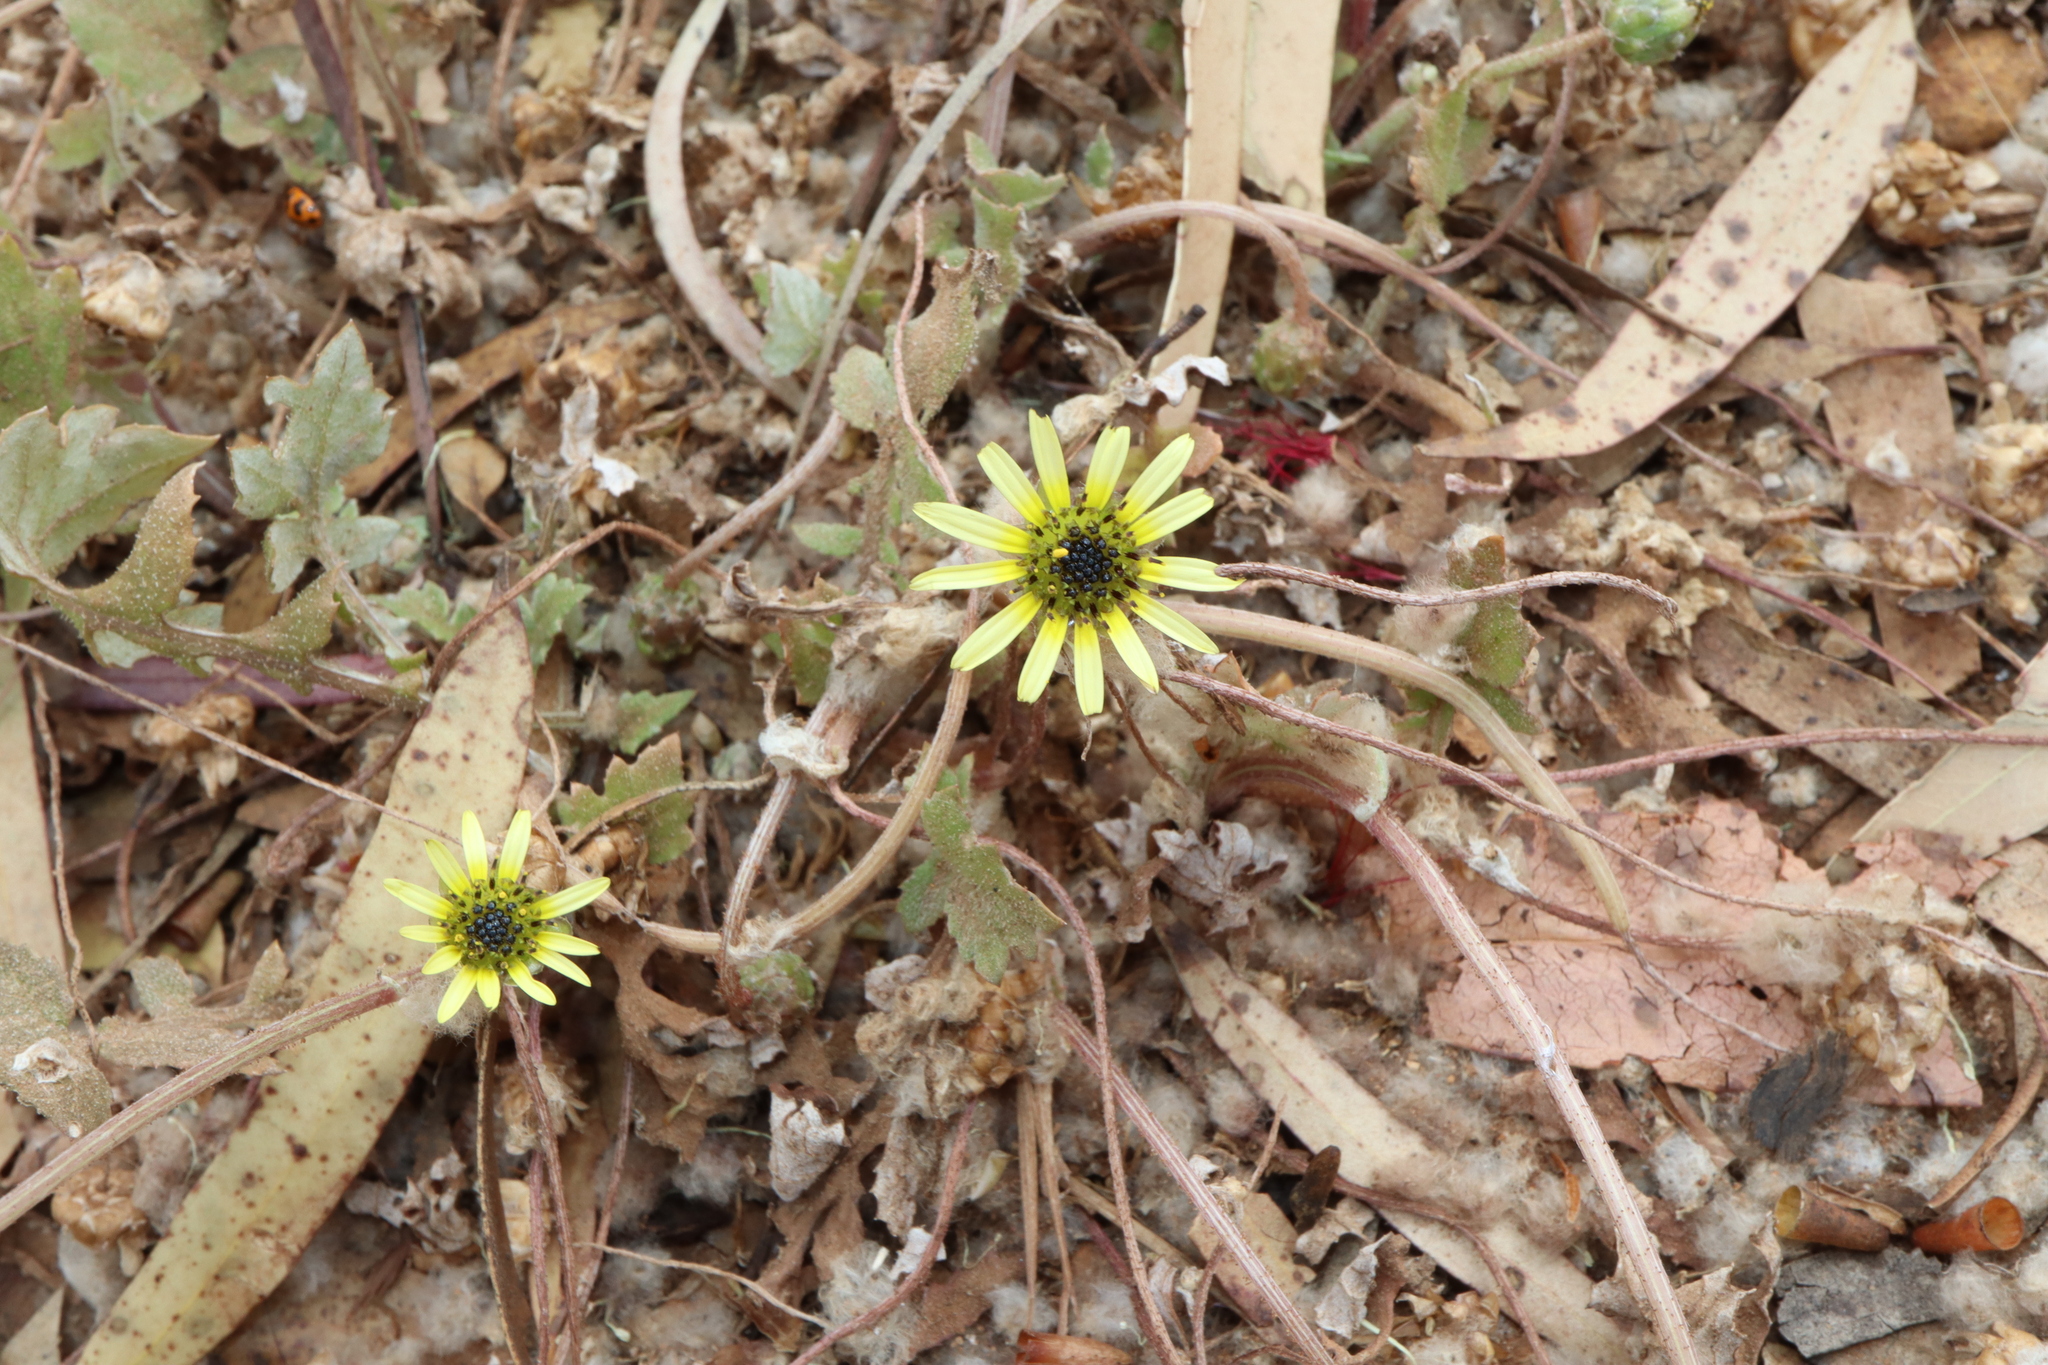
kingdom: Plantae
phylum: Tracheophyta
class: Magnoliopsida
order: Asterales
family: Asteraceae
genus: Arctotheca
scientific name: Arctotheca calendula
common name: Capeweed
